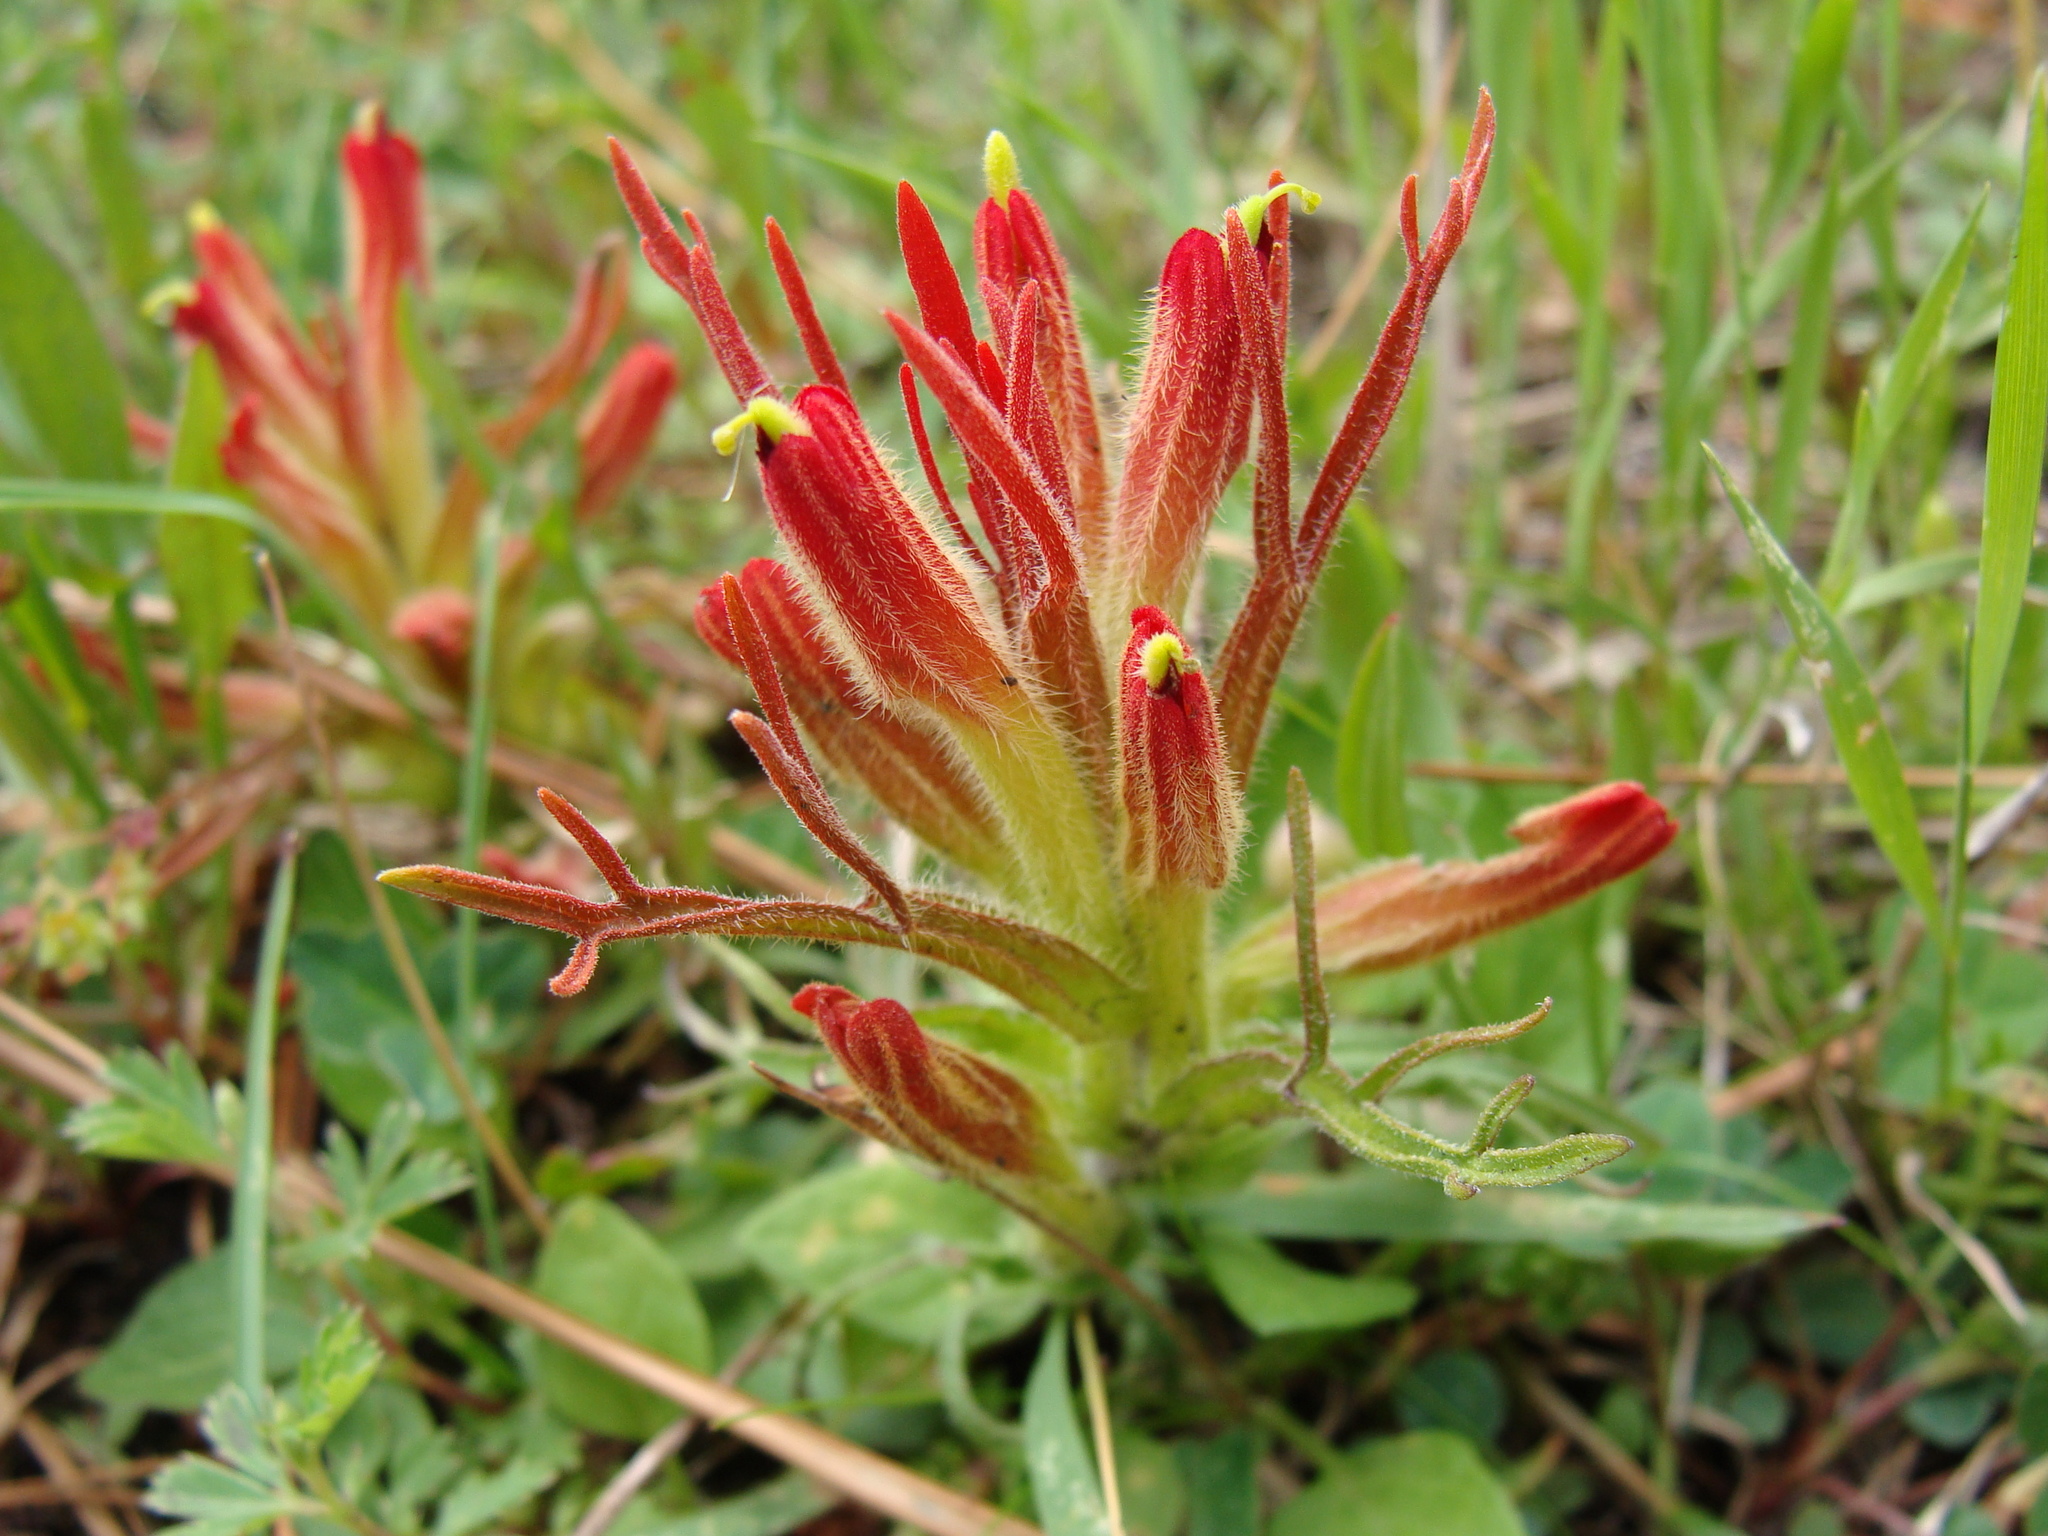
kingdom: Plantae
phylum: Tracheophyta
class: Magnoliopsida
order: Lamiales
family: Orobanchaceae
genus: Castilleja
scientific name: Castilleja moranensis
